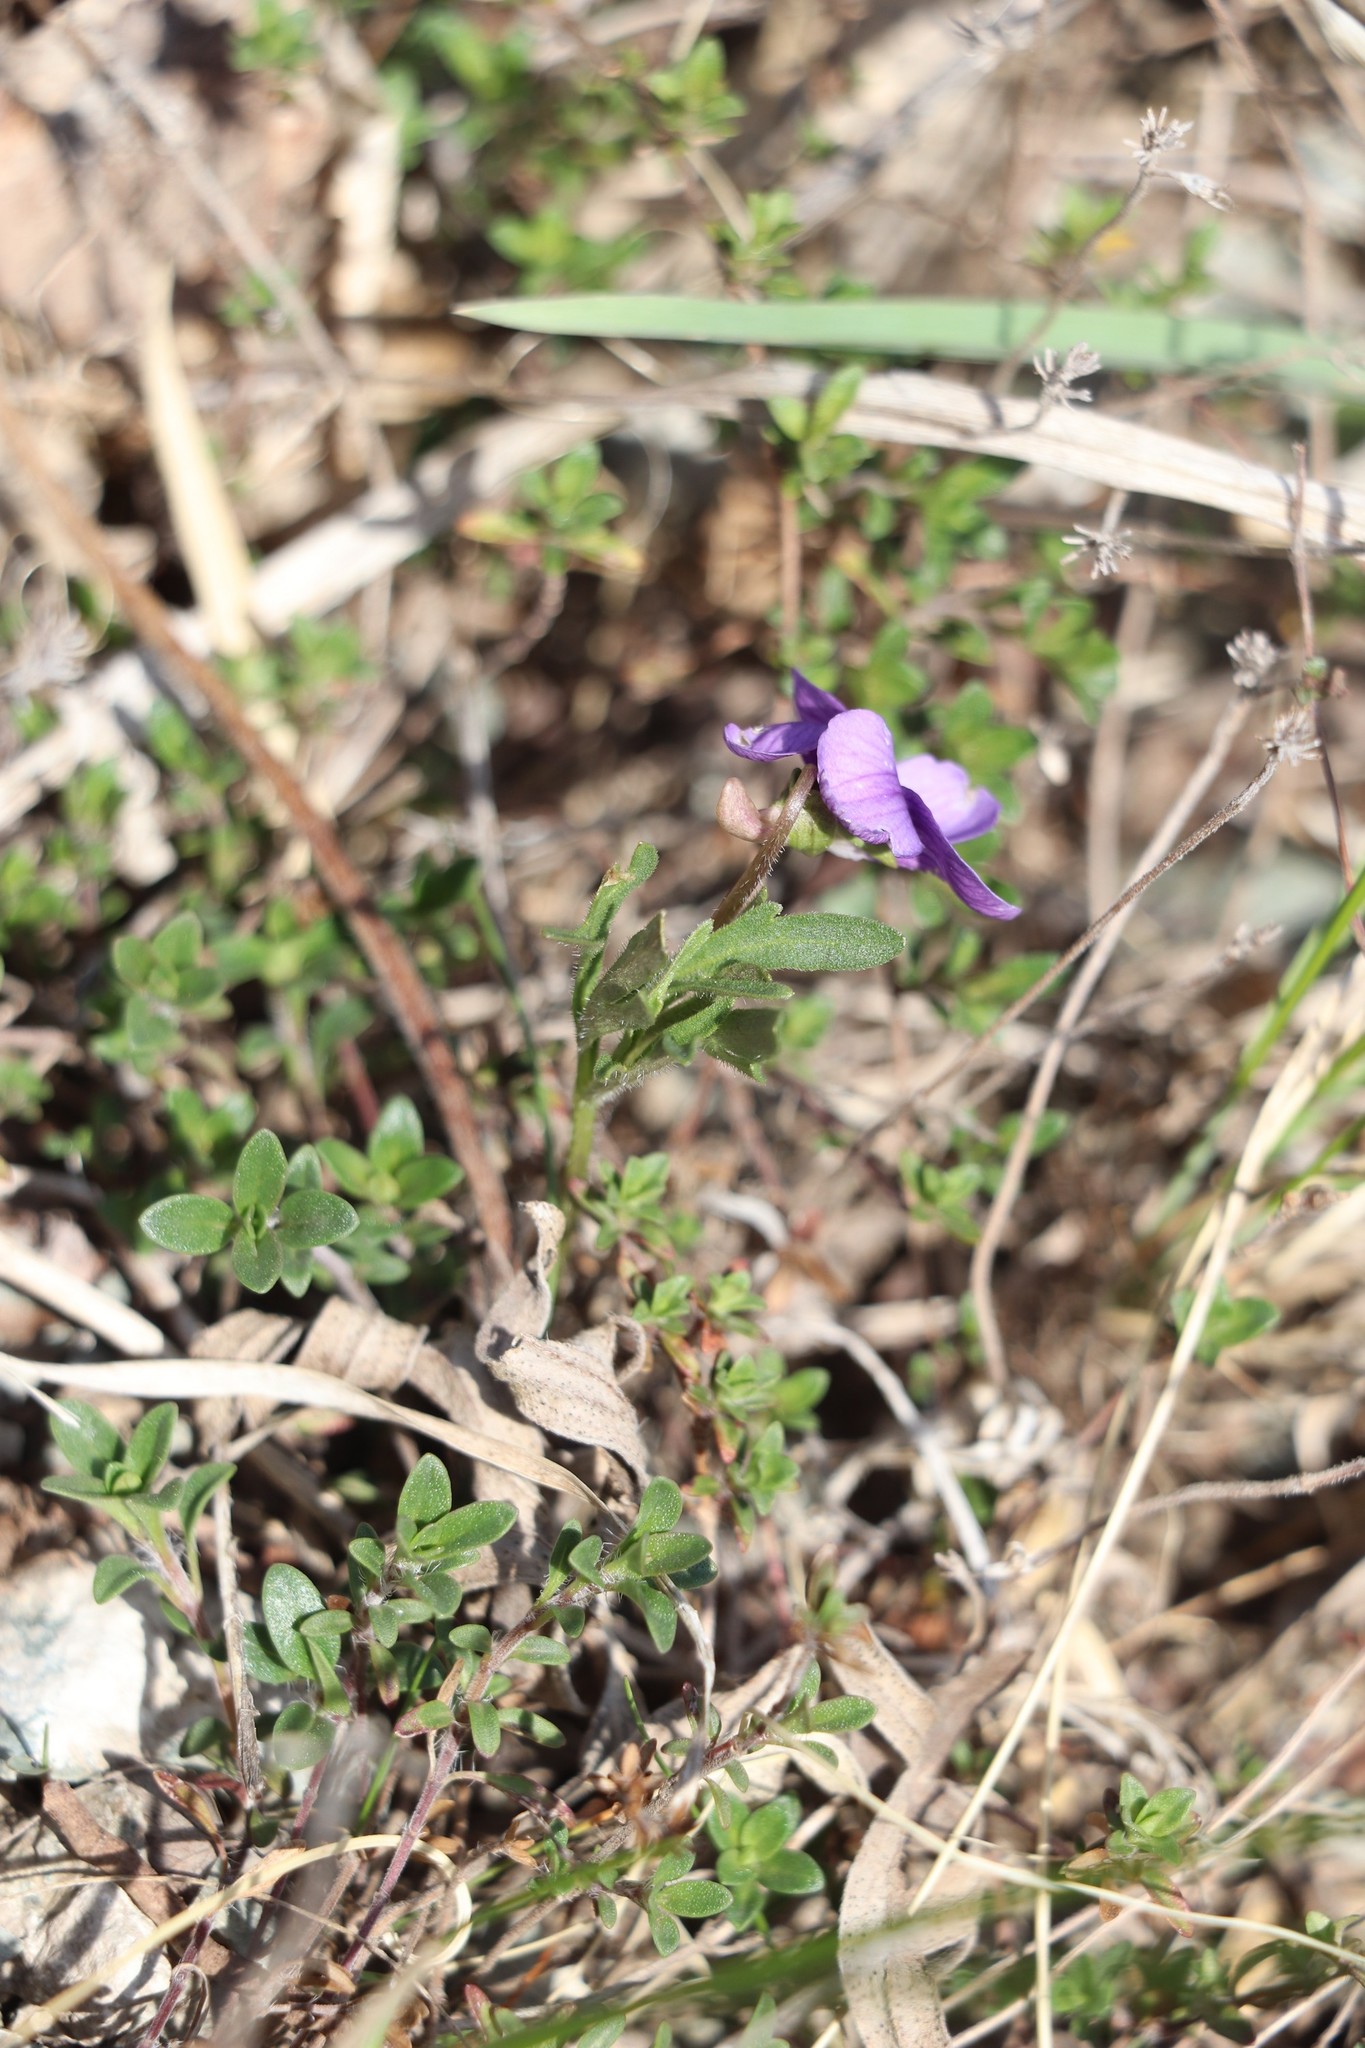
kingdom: Plantae
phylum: Tracheophyta
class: Magnoliopsida
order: Malpighiales
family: Violaceae
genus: Viola
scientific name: Viola multifida
